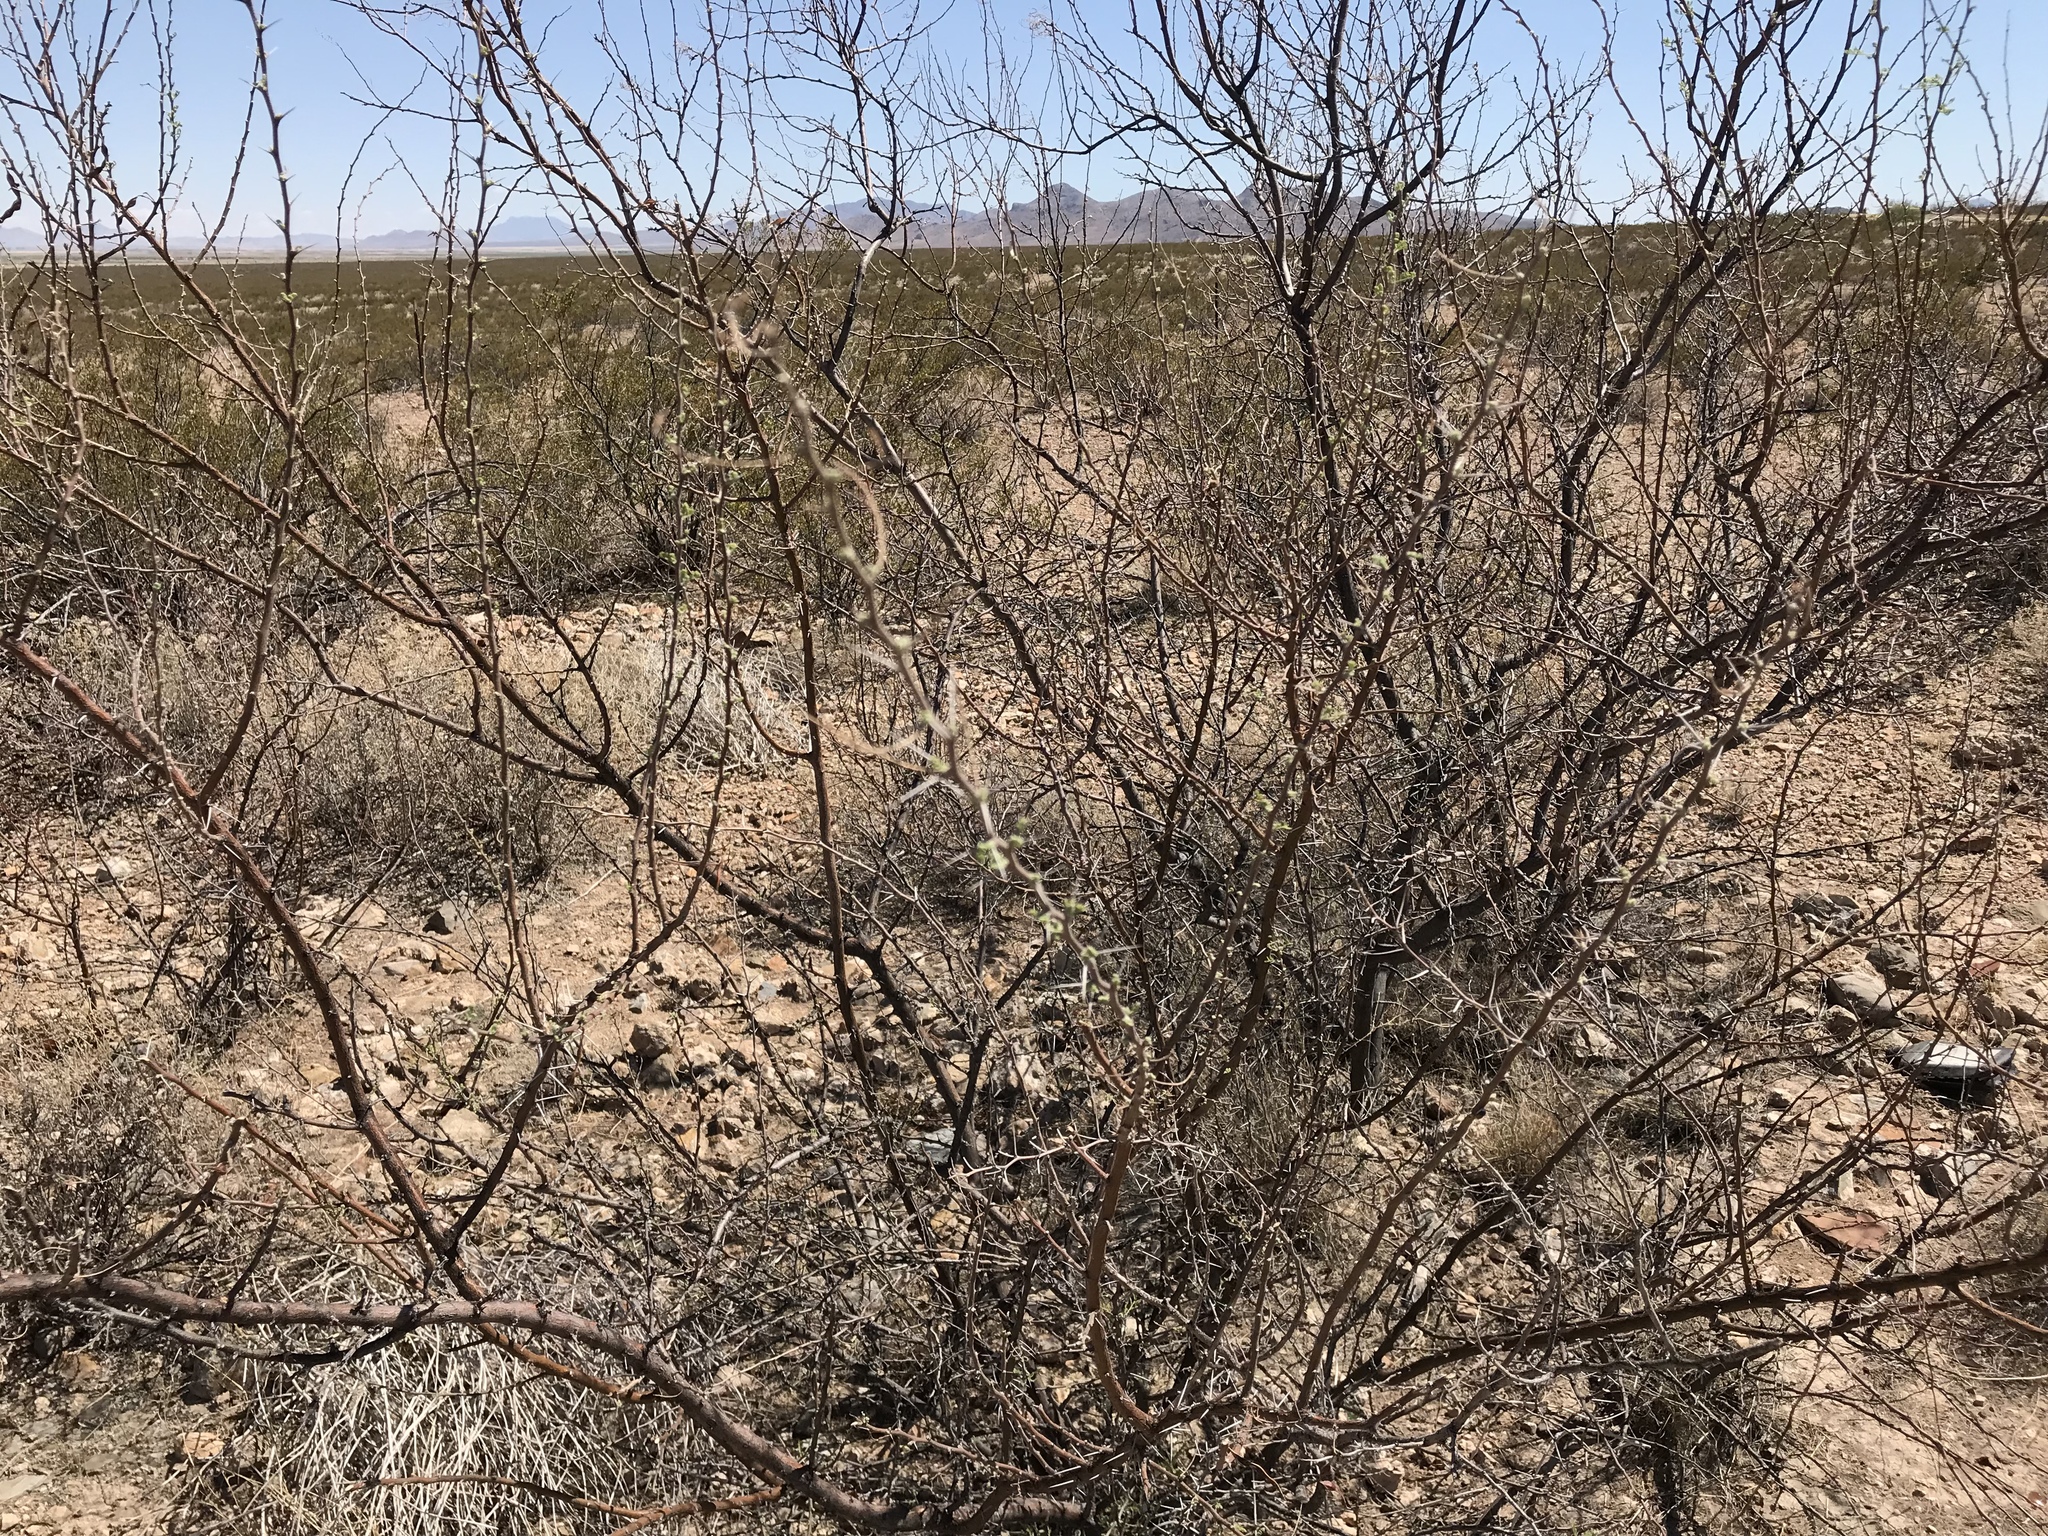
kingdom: Plantae
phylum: Tracheophyta
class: Magnoliopsida
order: Fabales
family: Fabaceae
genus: Vachellia
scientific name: Vachellia constricta
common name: Mescat acacia
